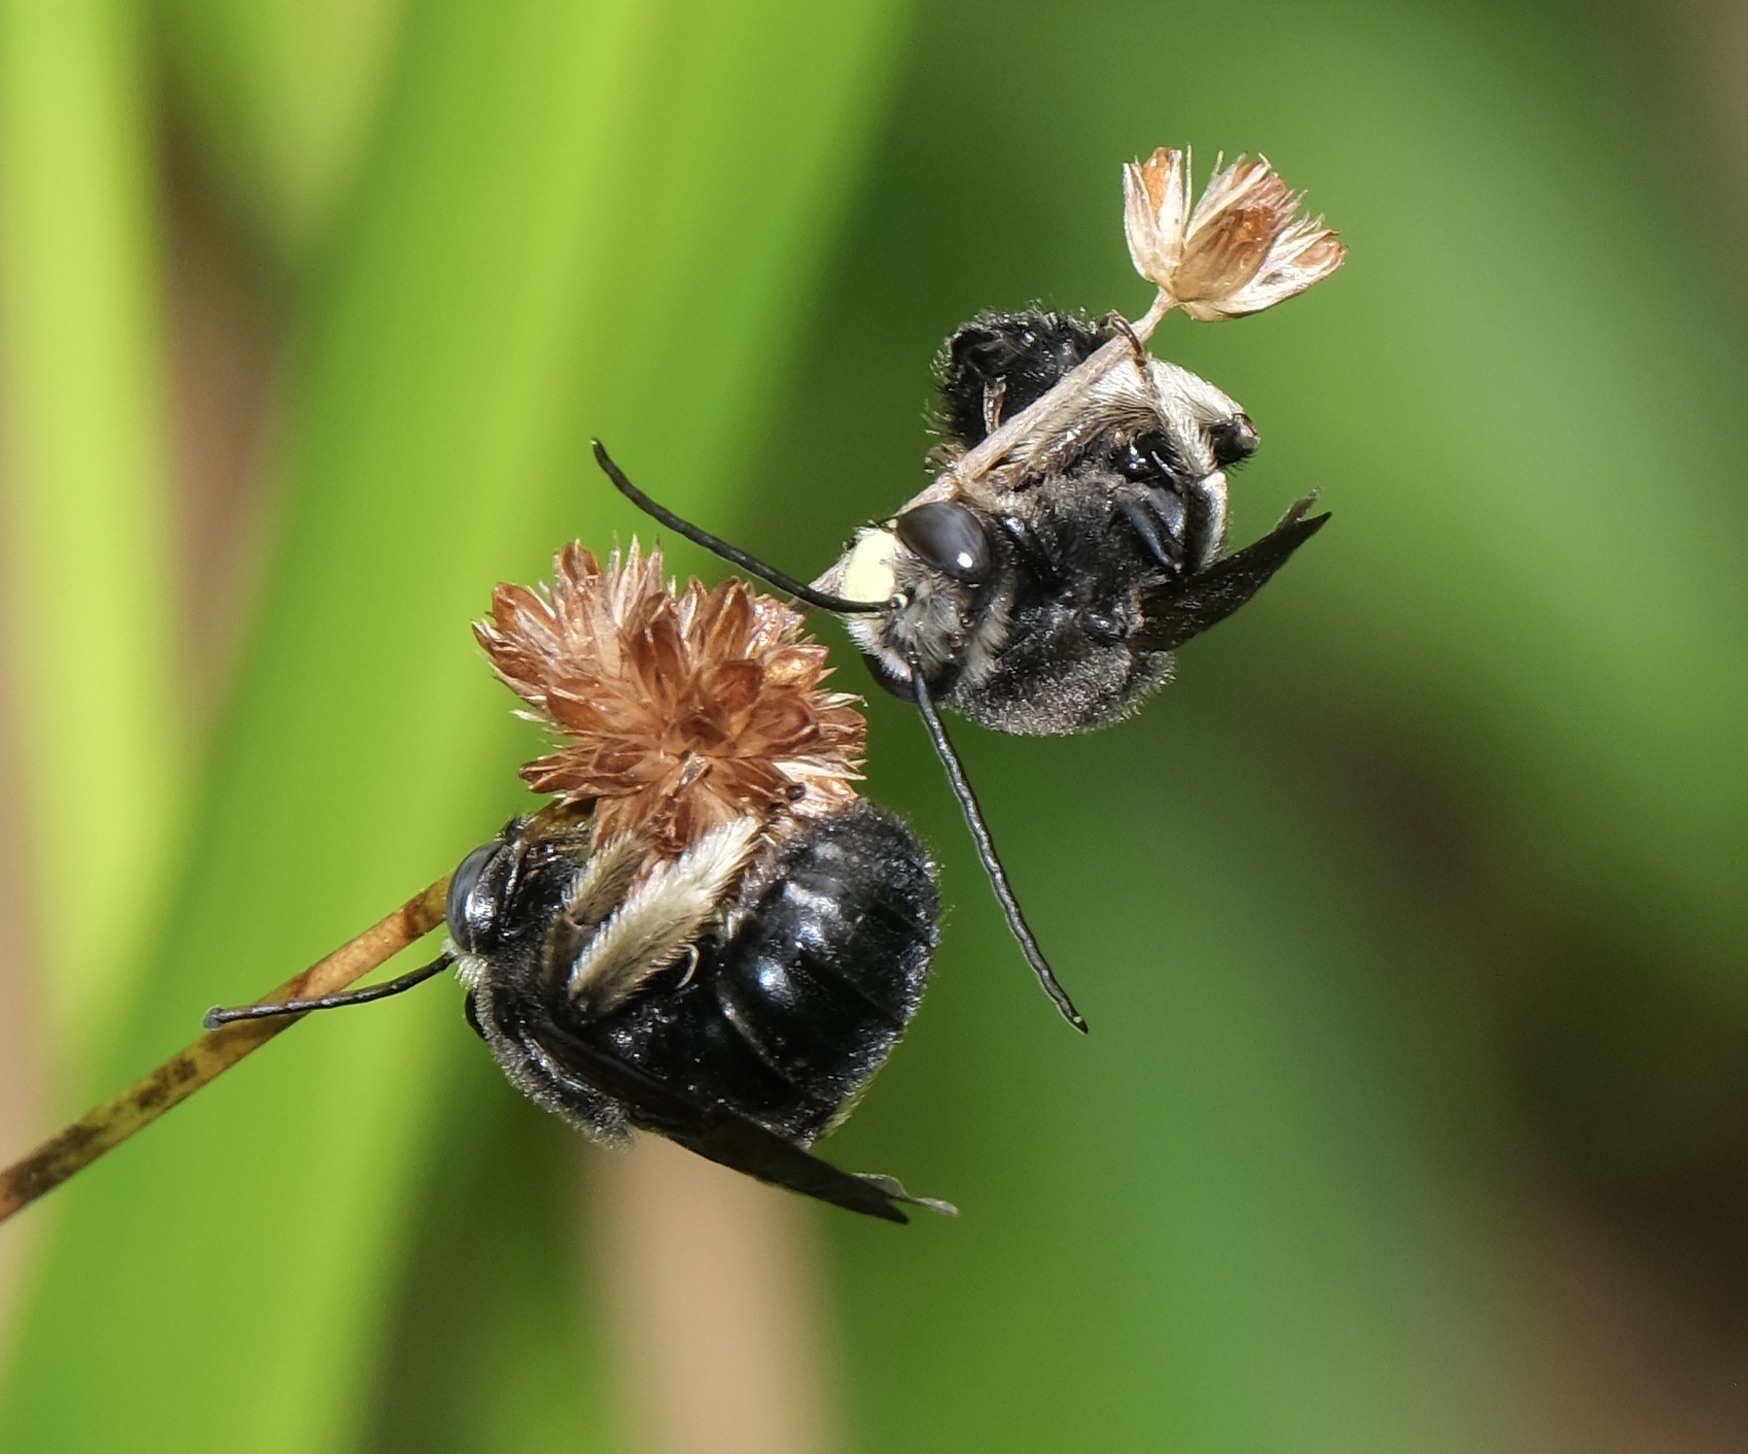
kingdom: Animalia
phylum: Arthropoda
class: Insecta
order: Hymenoptera
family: Apidae
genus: Melissodes
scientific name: Melissodes bimaculatus
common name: Two-spotted long-horned bee
